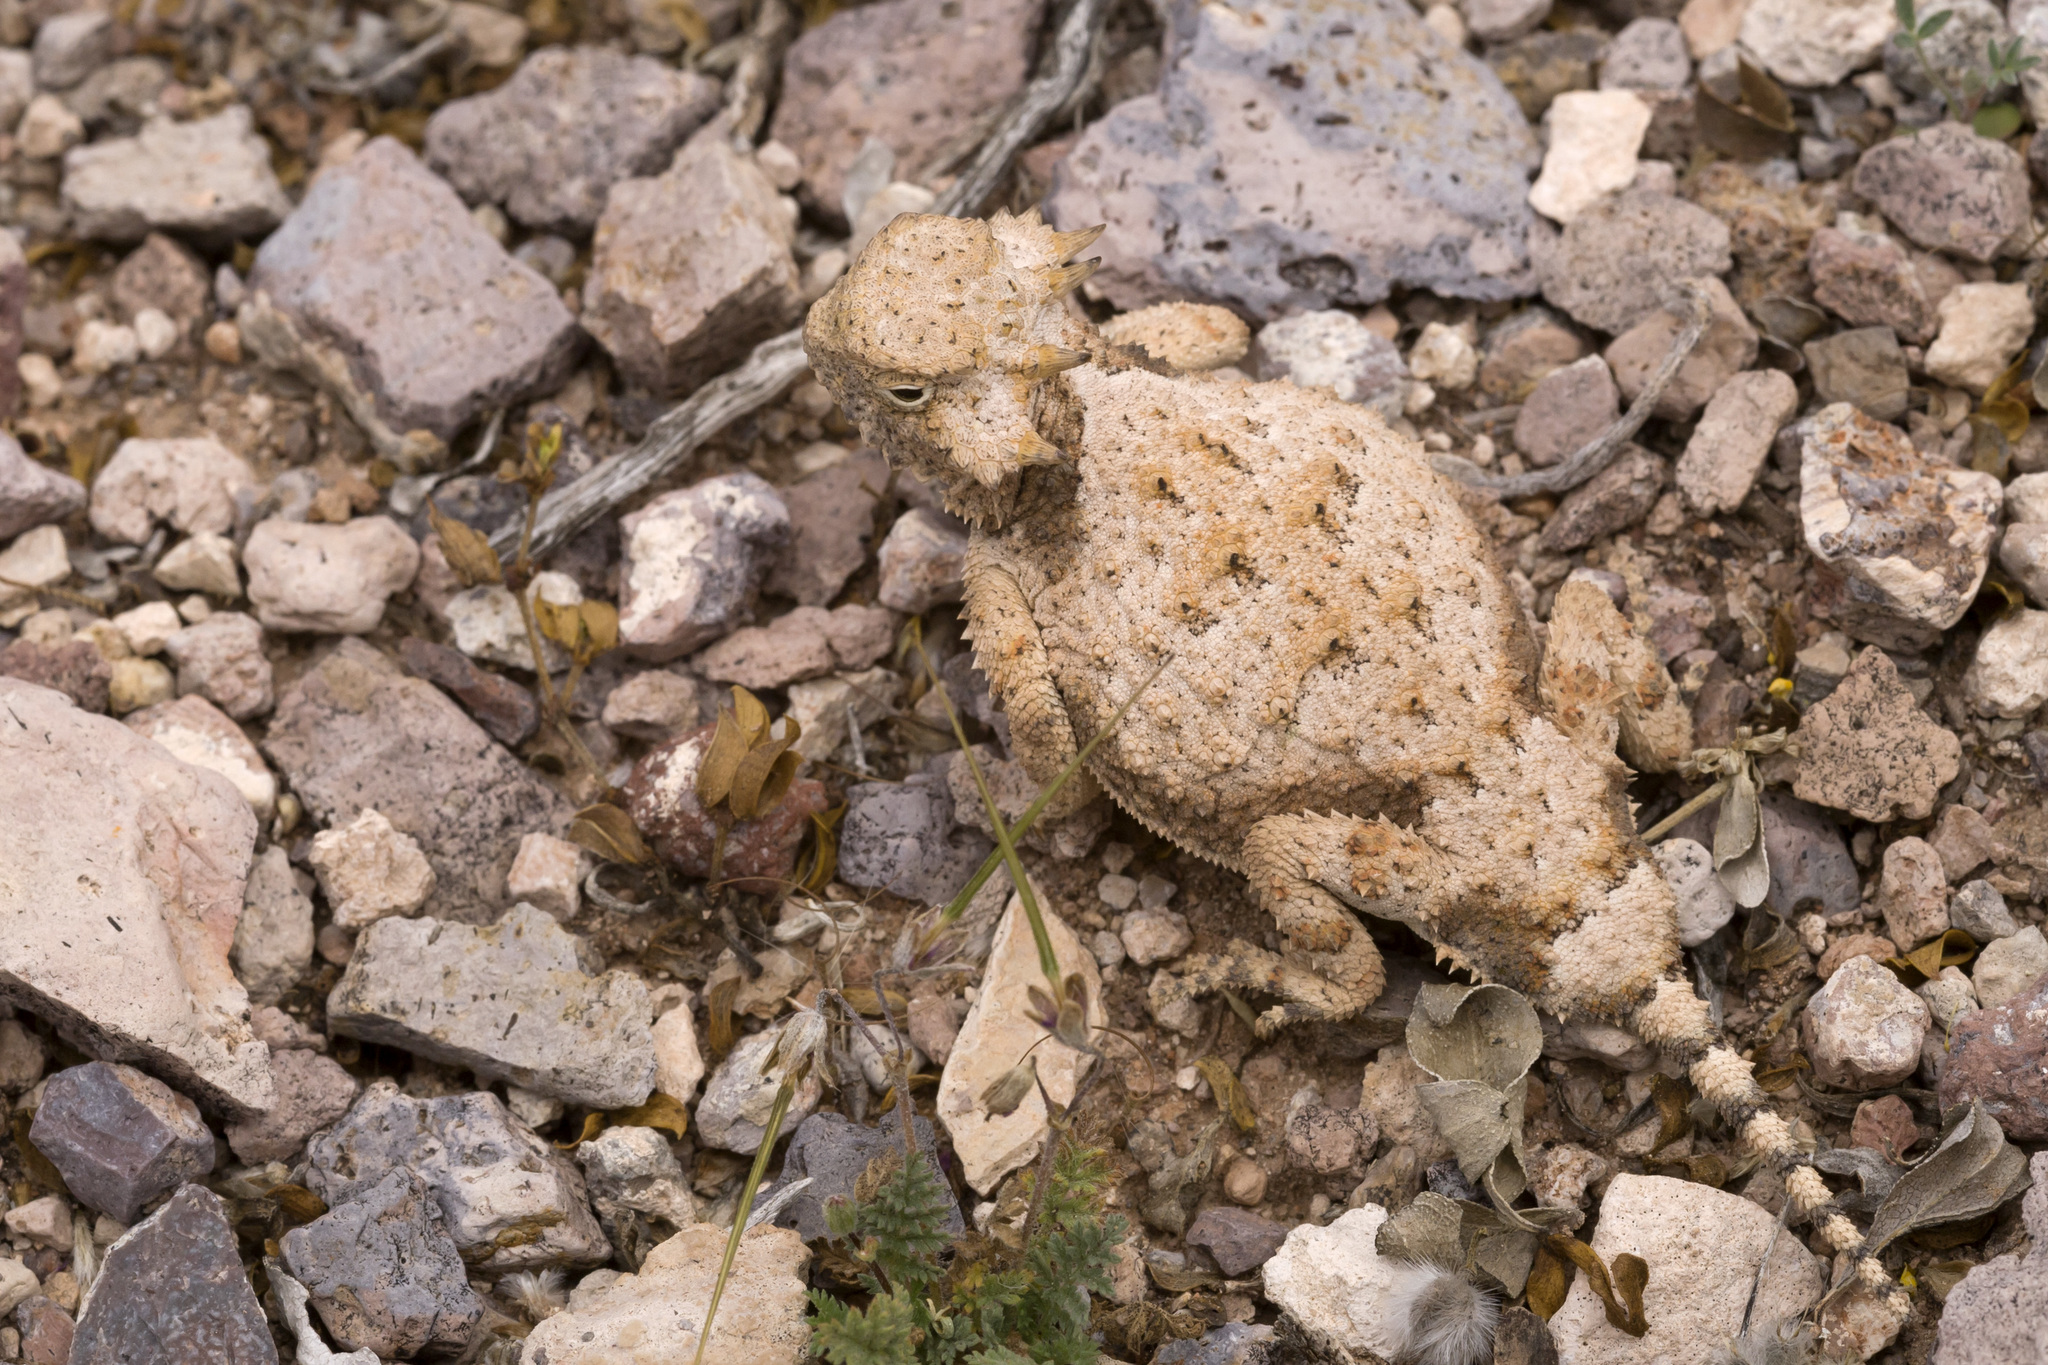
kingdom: Animalia
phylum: Chordata
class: Squamata
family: Phrynosomatidae
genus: Phrynosoma
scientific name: Phrynosoma modestum
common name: Roundtail horned lizard
